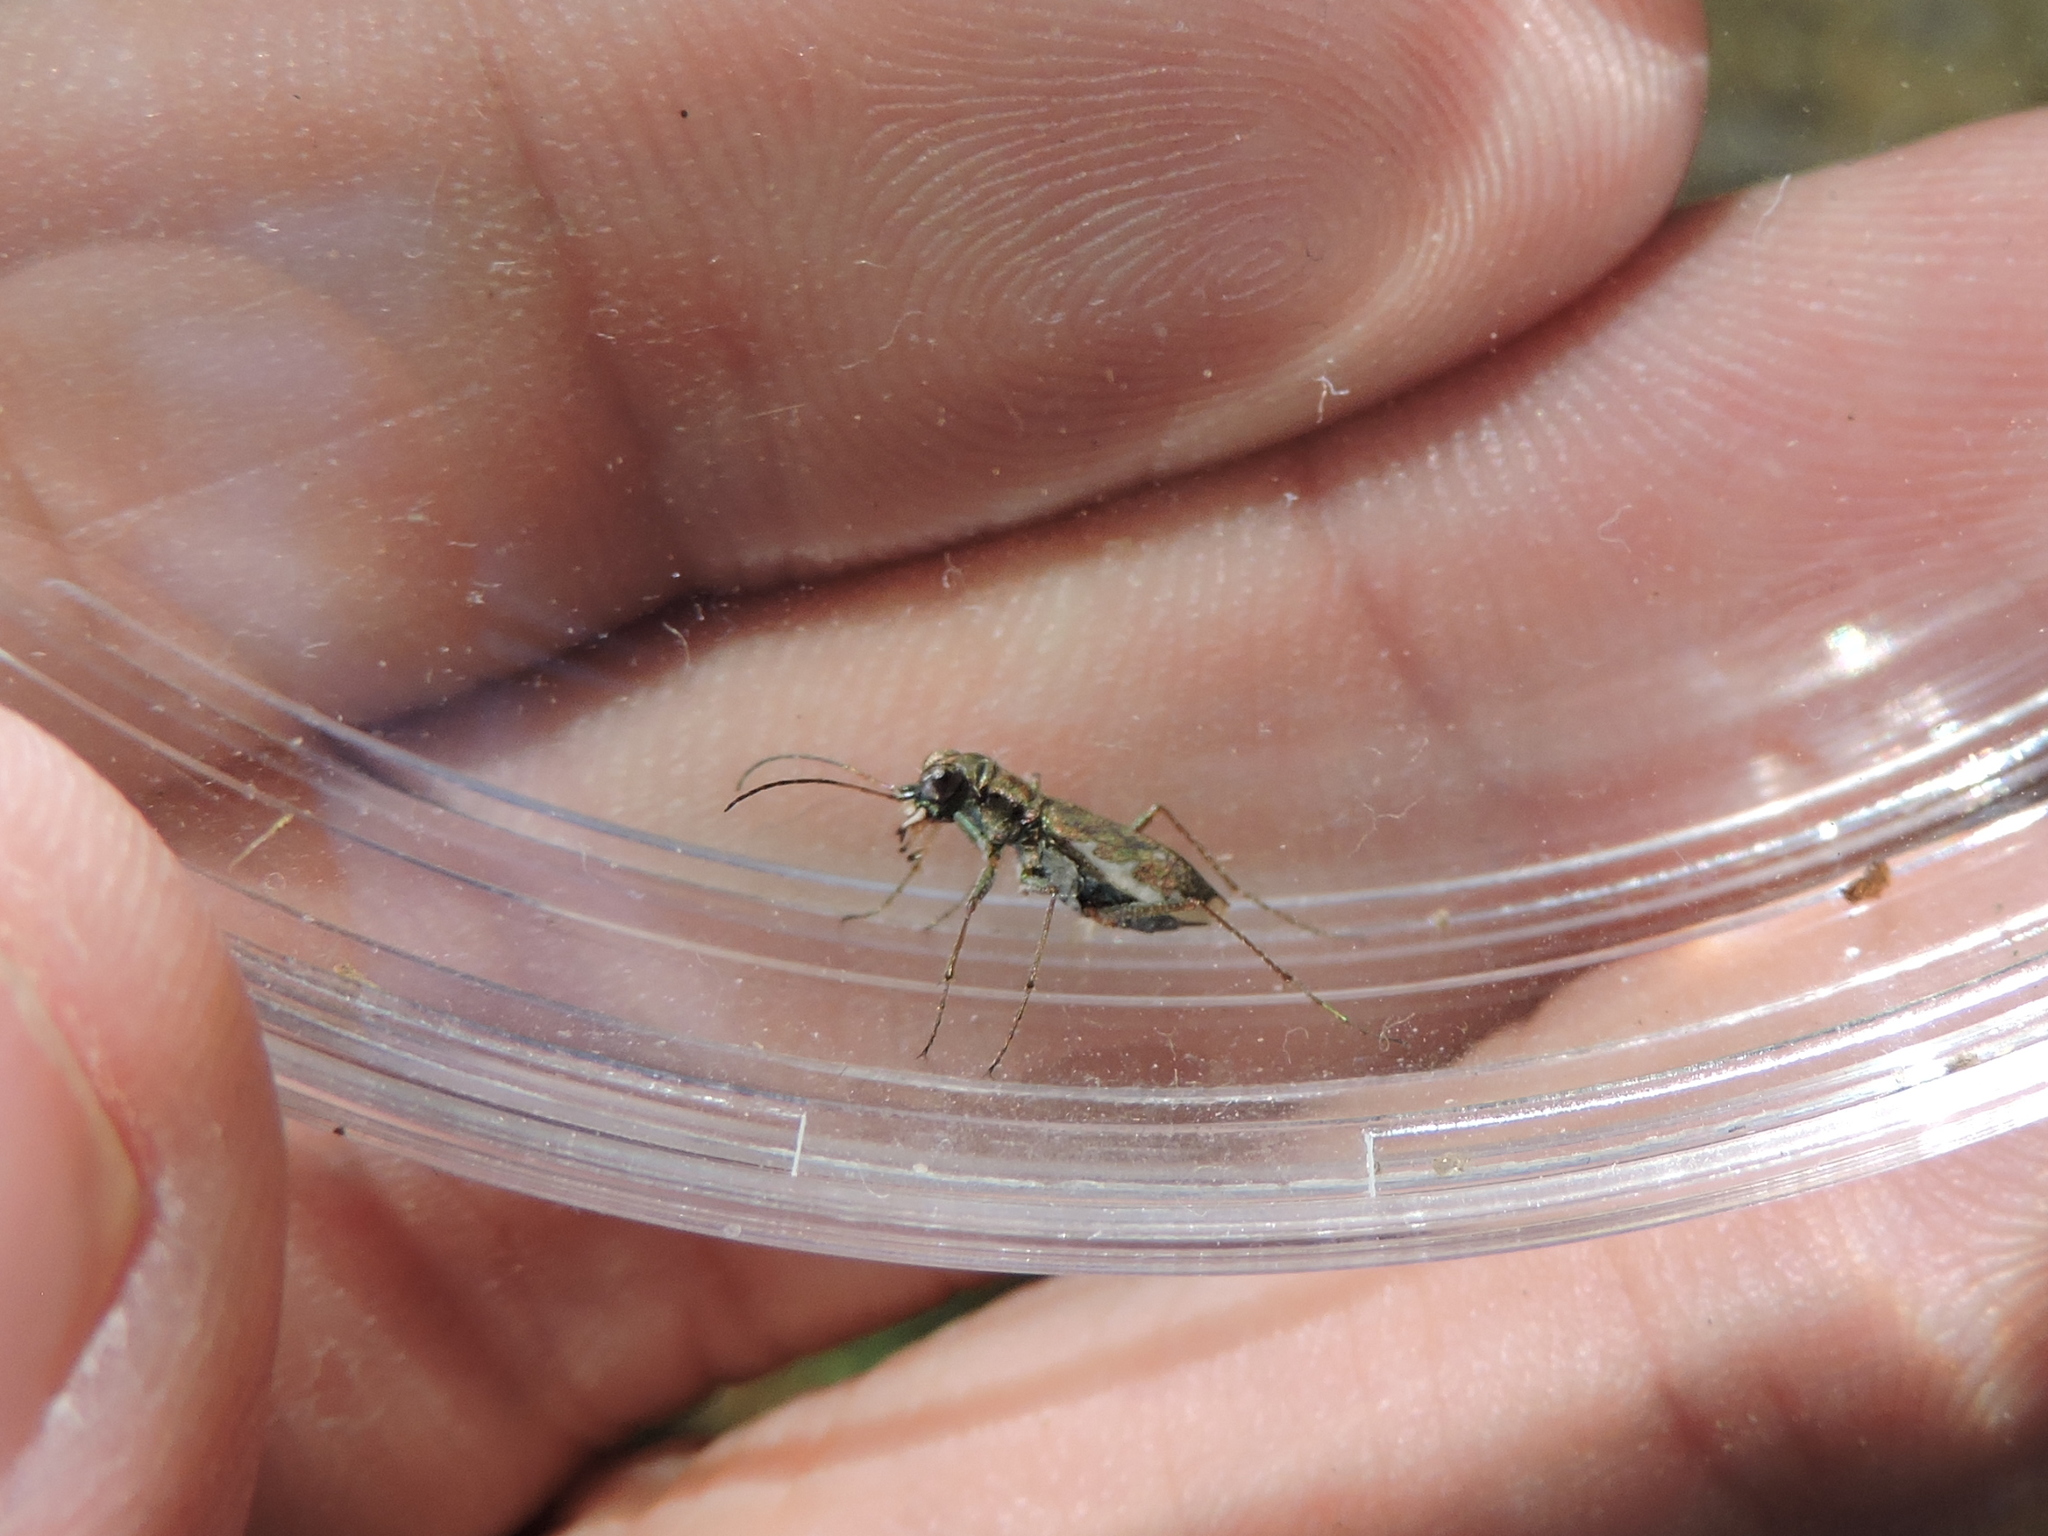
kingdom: Animalia
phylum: Arthropoda
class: Insecta
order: Coleoptera
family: Carabidae
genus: Cylindera
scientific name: Cylindera cursitans
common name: Ant-like tiger beetle
